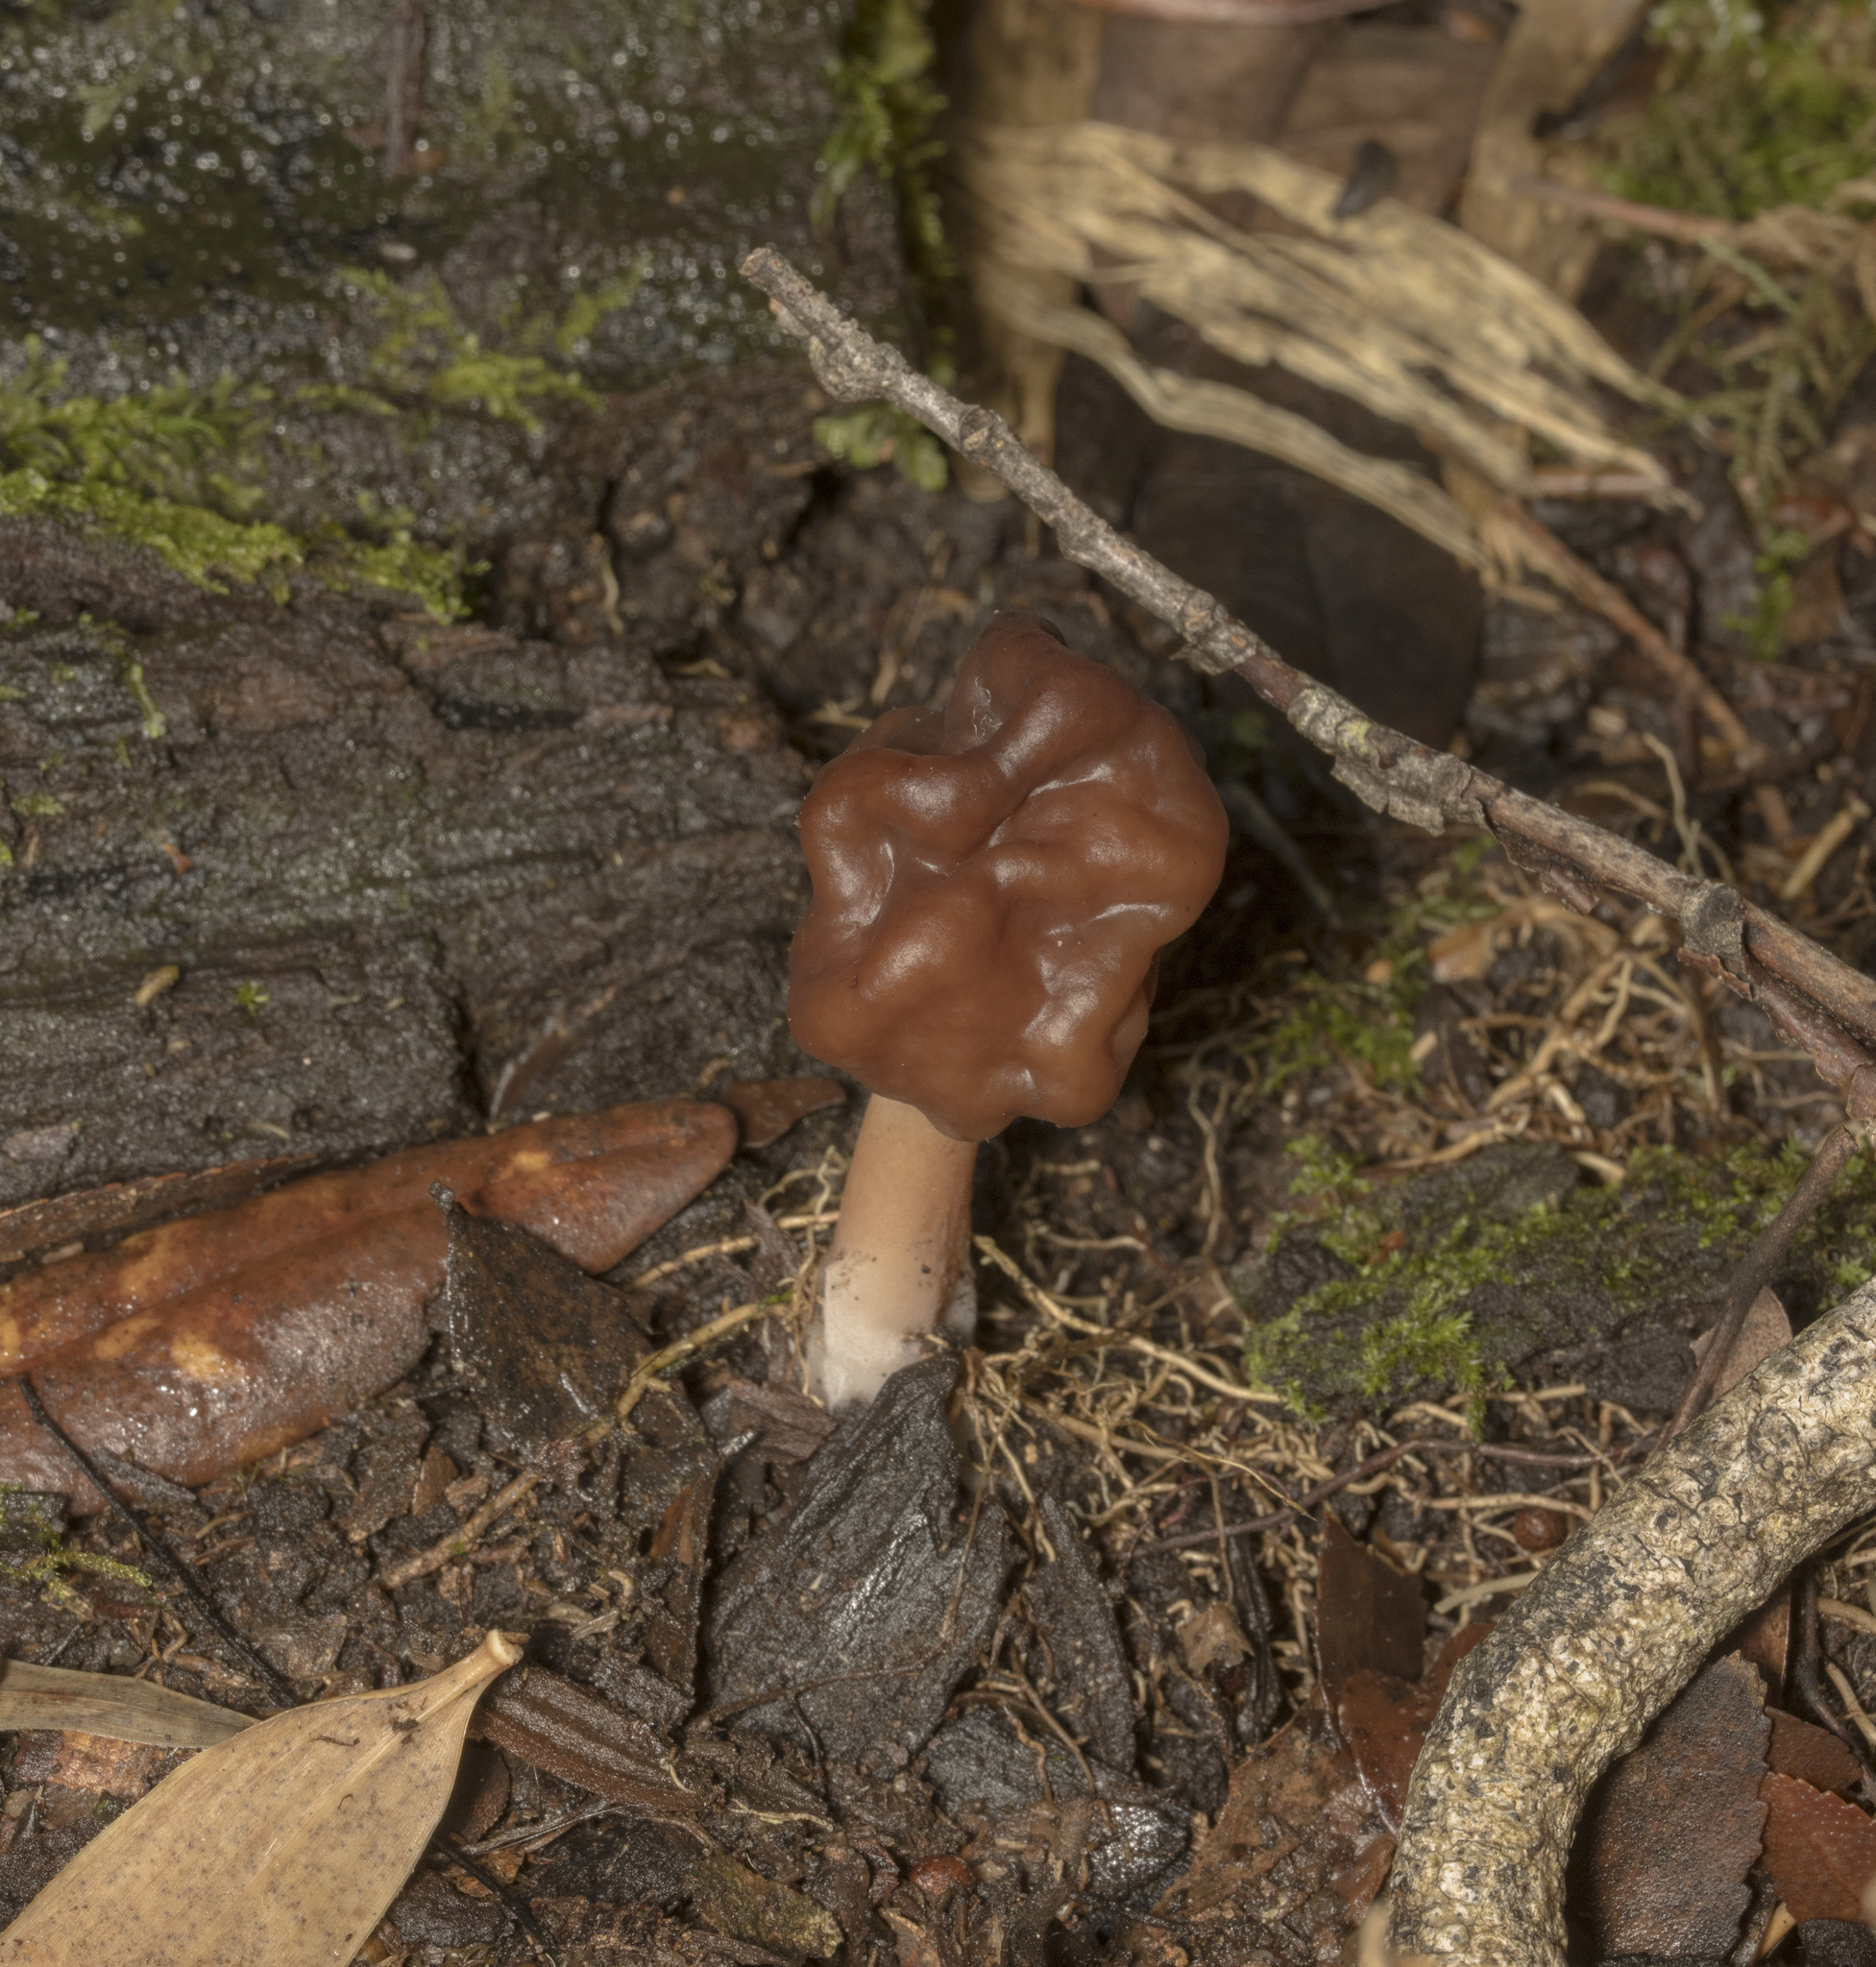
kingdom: Fungi
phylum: Ascomycota
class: Pezizomycetes
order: Pezizales
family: Discinaceae
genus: Gyromitra
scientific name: Gyromitra antarctica
